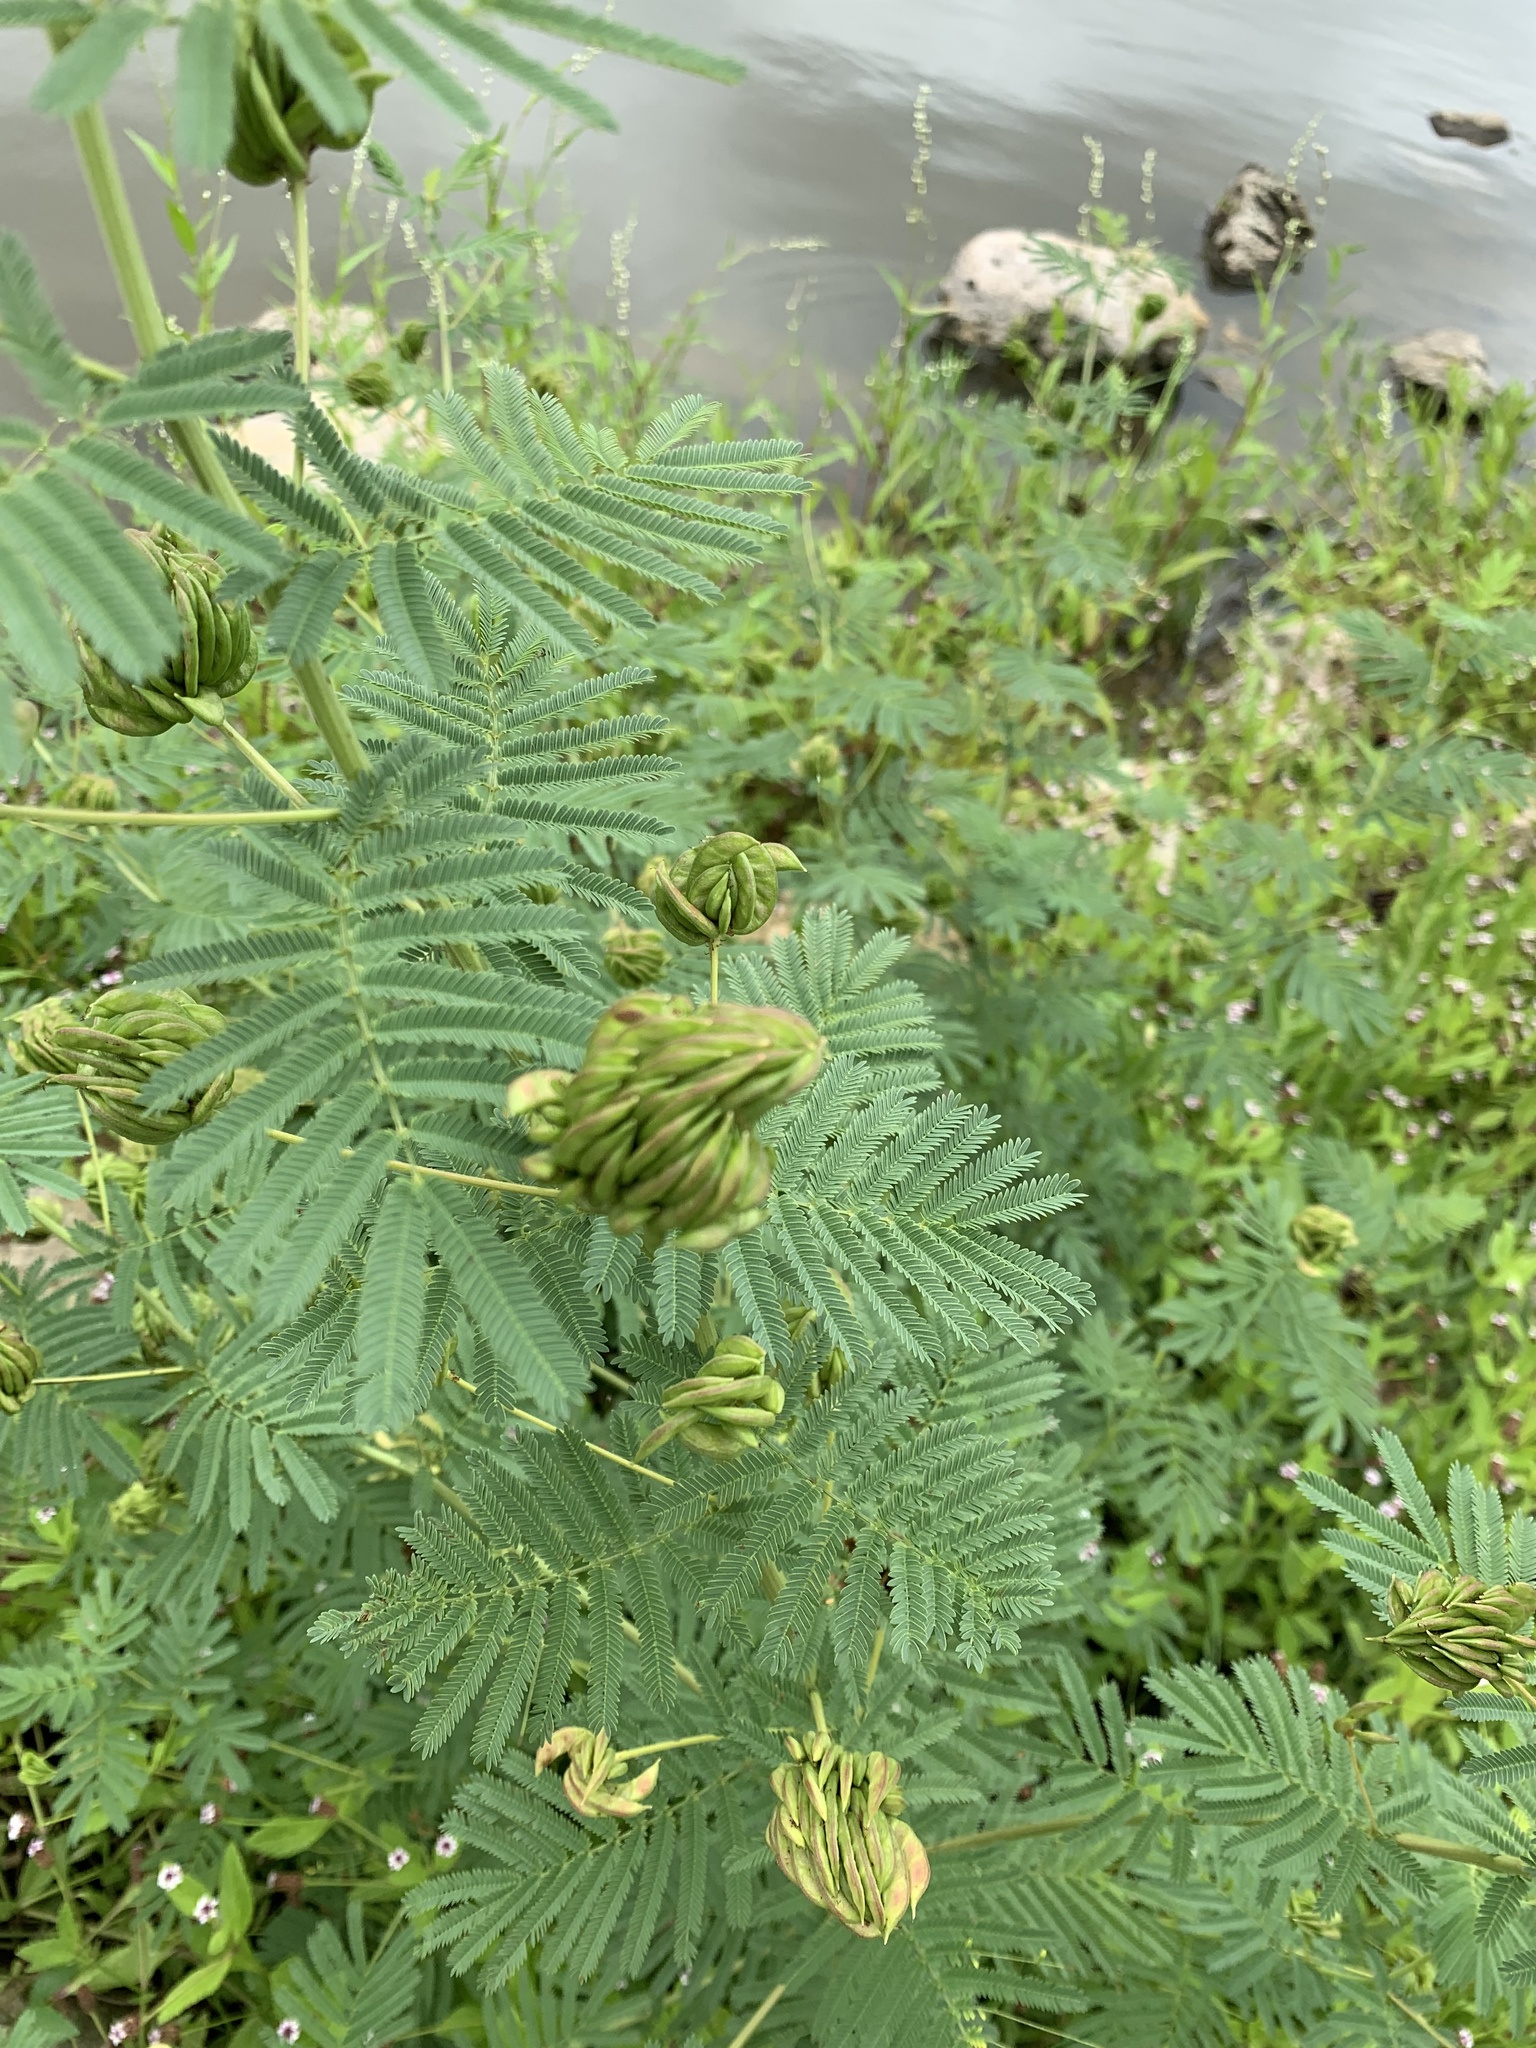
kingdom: Plantae
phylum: Tracheophyta
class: Magnoliopsida
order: Fabales
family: Fabaceae
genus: Desmanthus
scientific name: Desmanthus illinoensis
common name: Illinois bundle-flower
